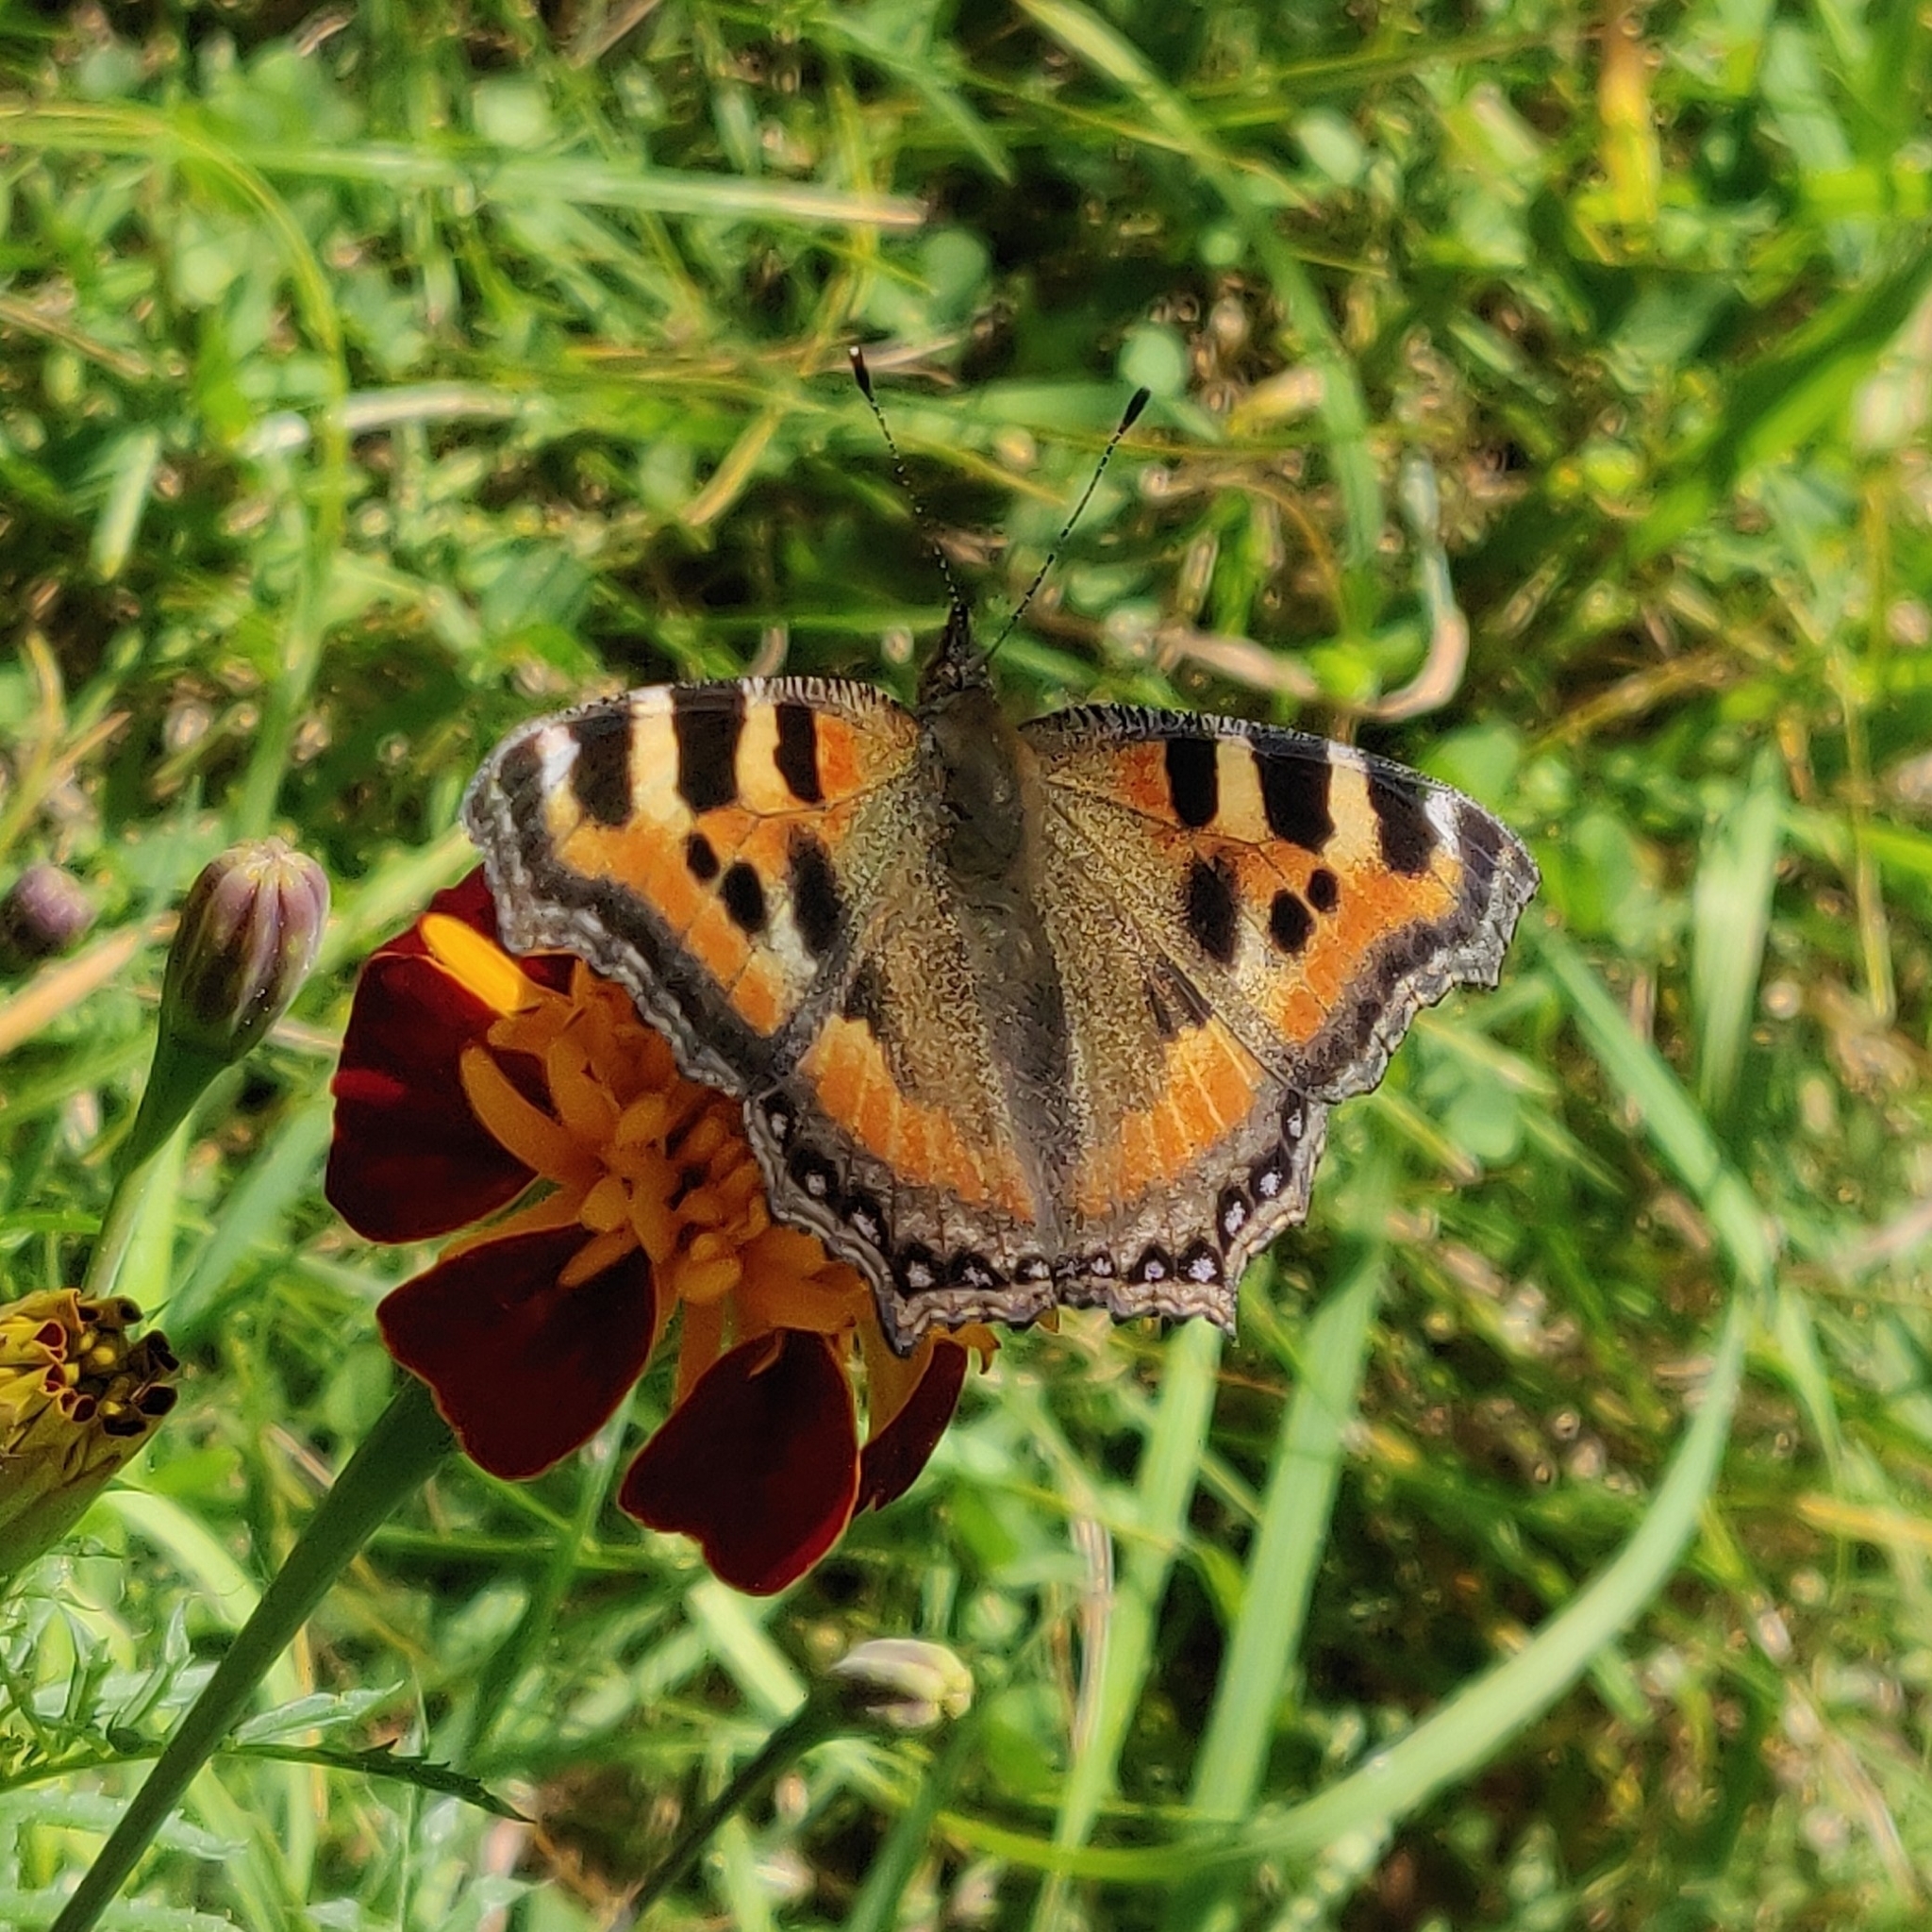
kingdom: Animalia
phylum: Arthropoda
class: Insecta
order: Lepidoptera
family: Nymphalidae
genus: Aglais
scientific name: Aglais caschmirensis
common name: Indian tortoiseshell
